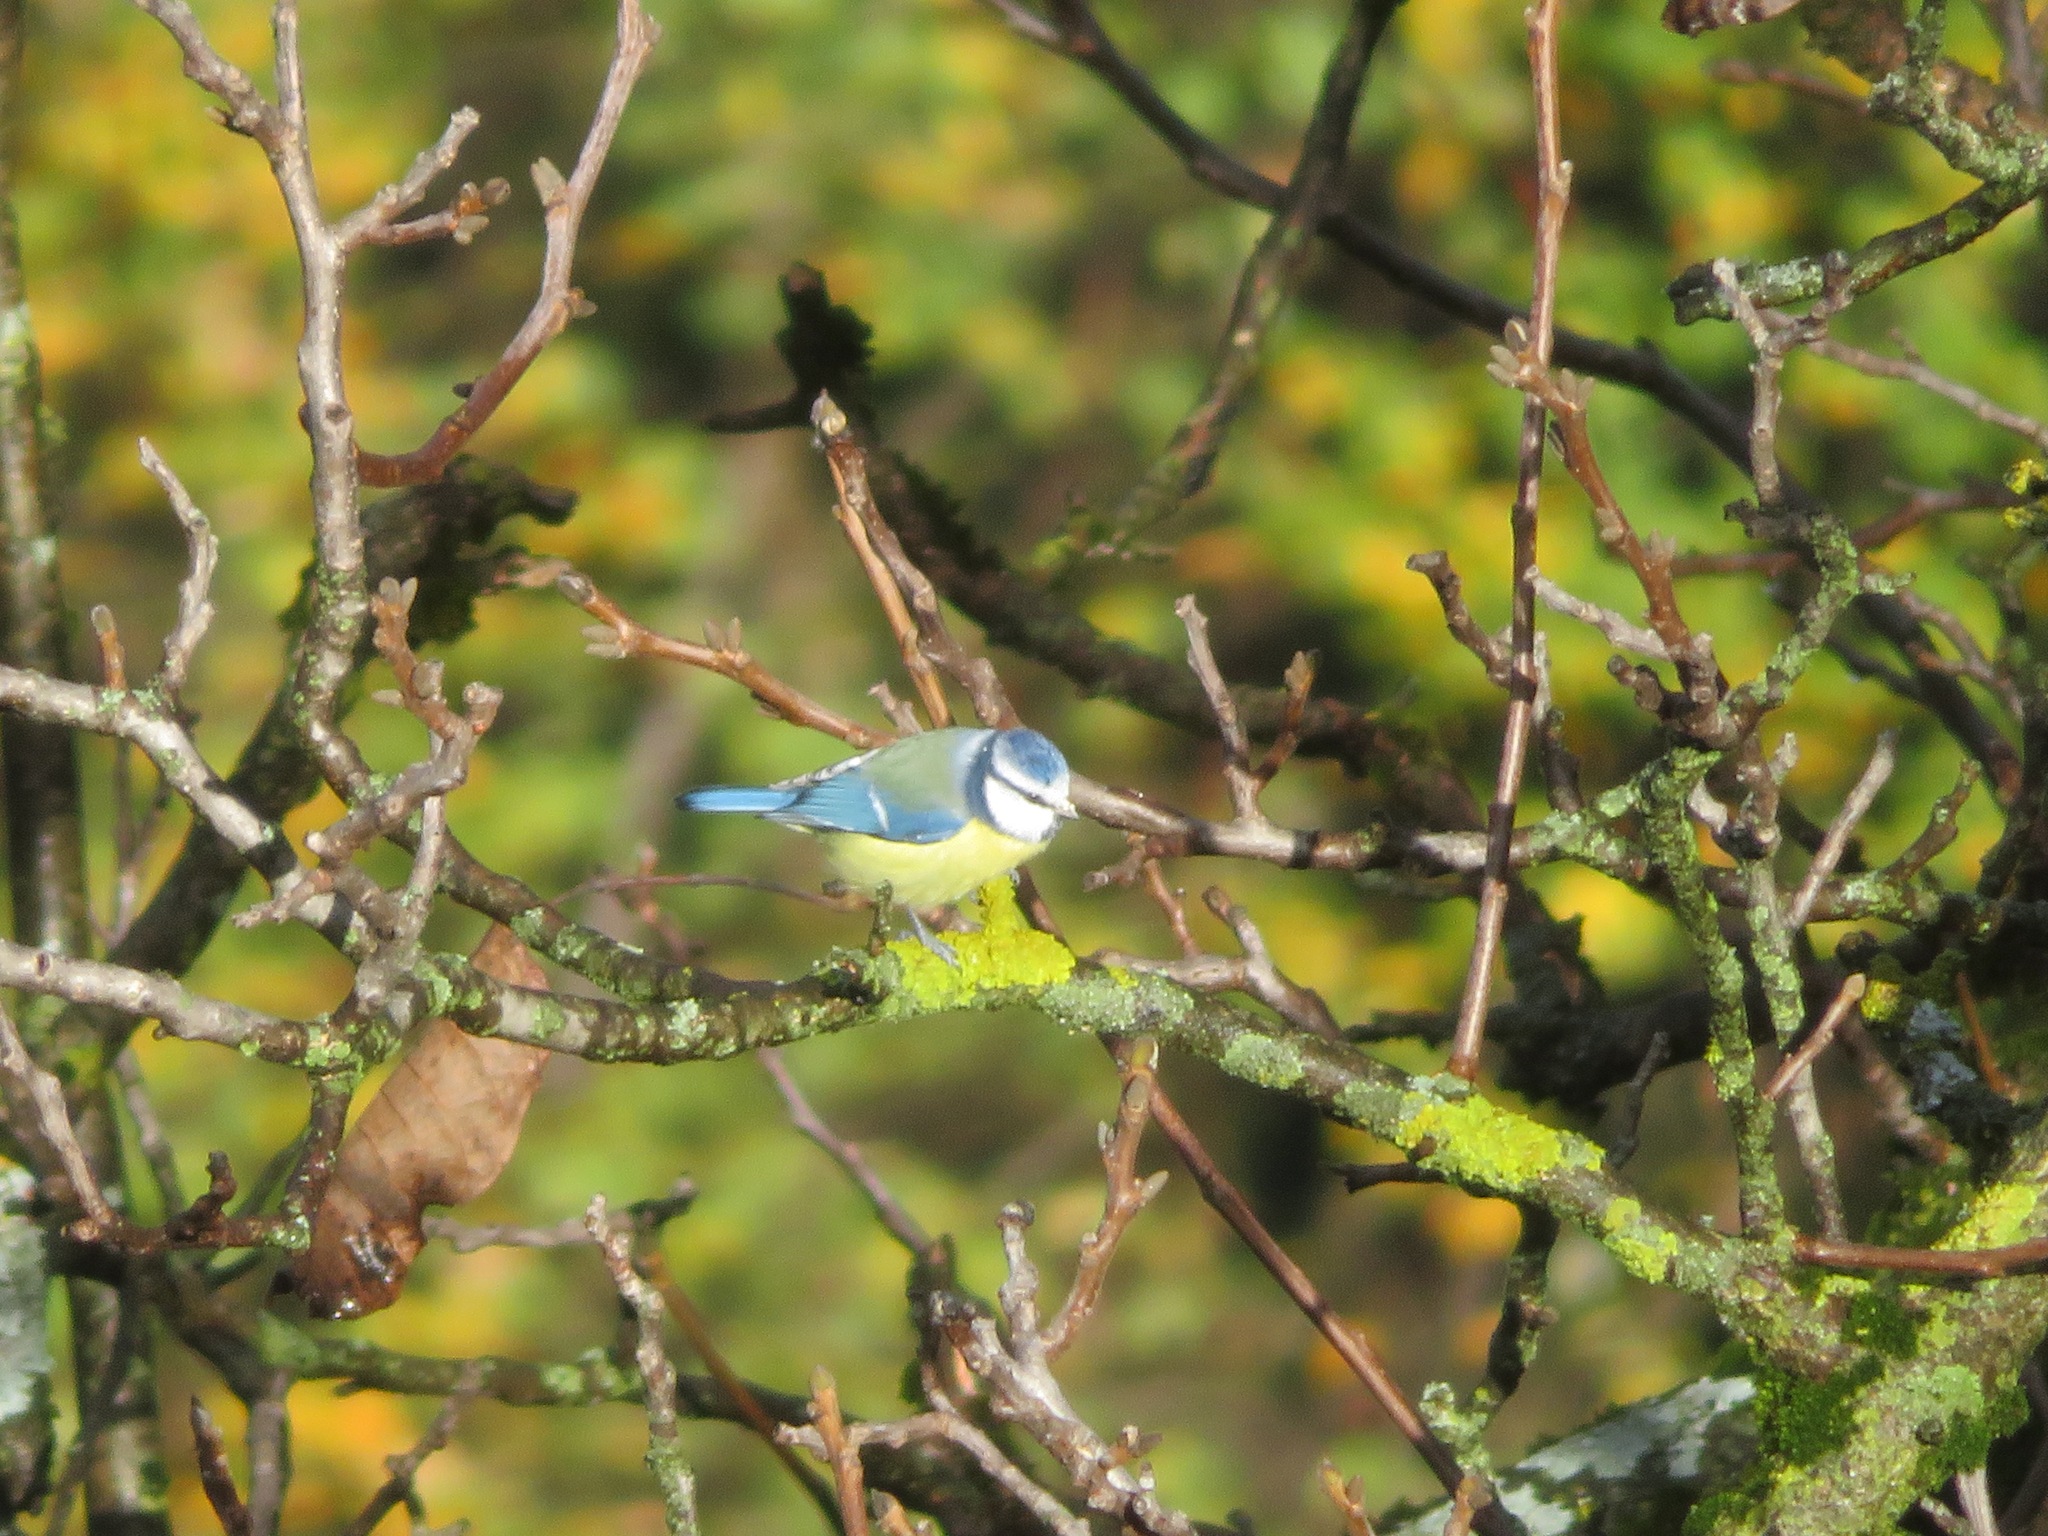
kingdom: Animalia
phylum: Chordata
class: Aves
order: Passeriformes
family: Paridae
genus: Cyanistes
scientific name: Cyanistes caeruleus
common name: Eurasian blue tit
